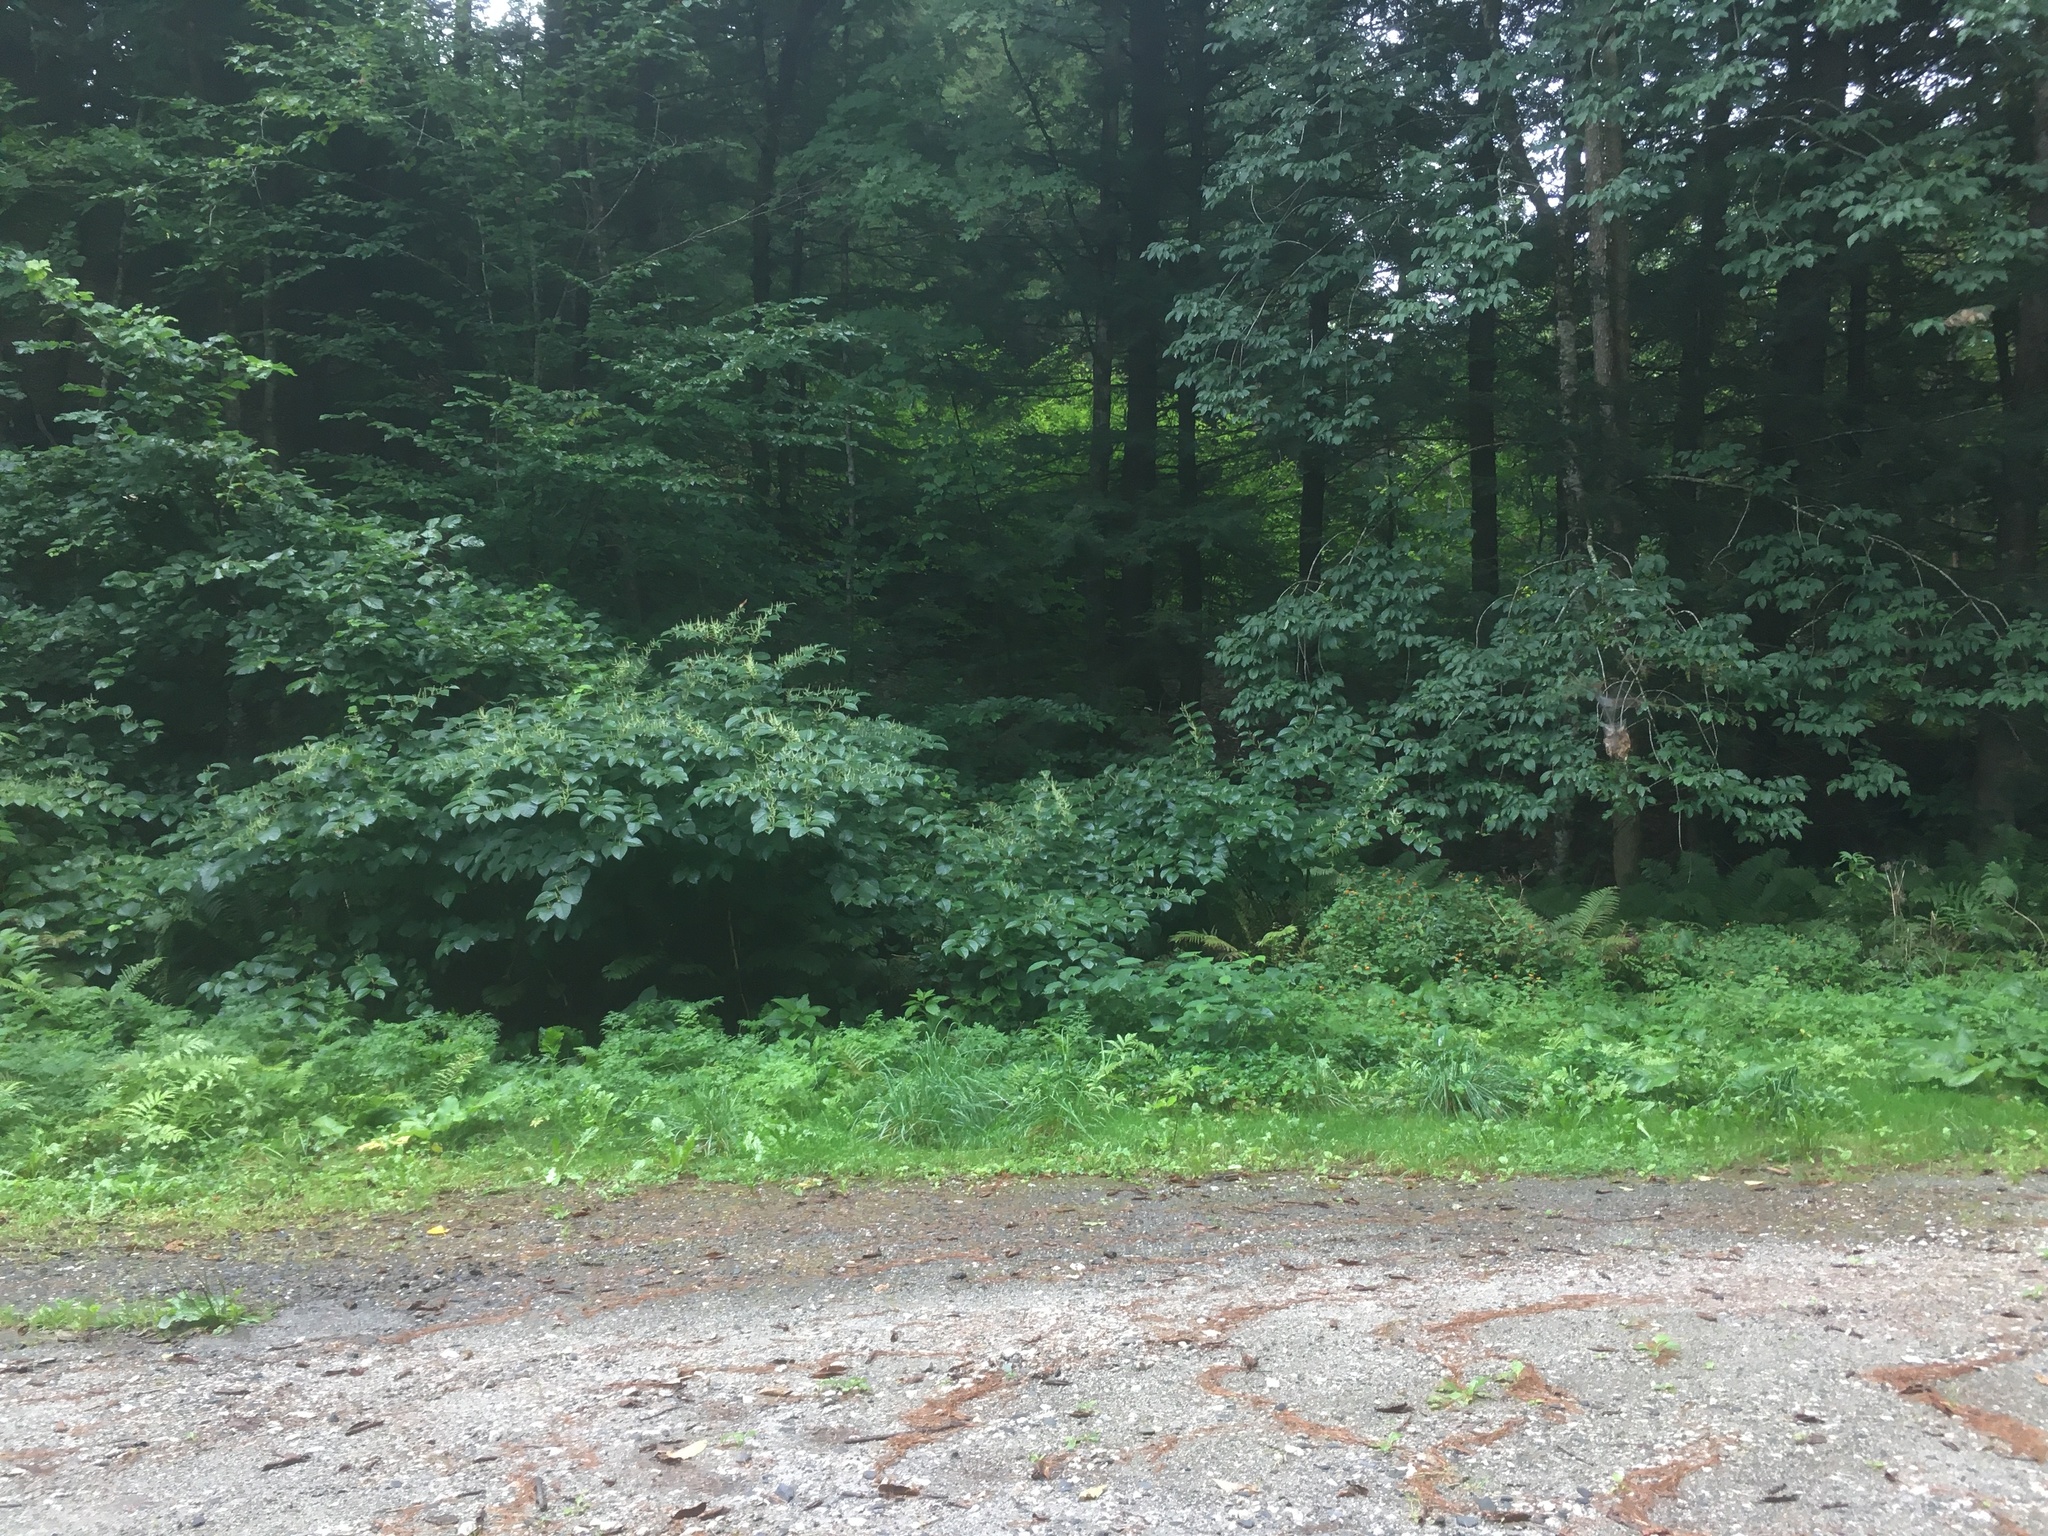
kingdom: Plantae
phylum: Tracheophyta
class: Magnoliopsida
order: Caryophyllales
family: Polygonaceae
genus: Reynoutria
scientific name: Reynoutria japonica
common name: Japanese knotweed
